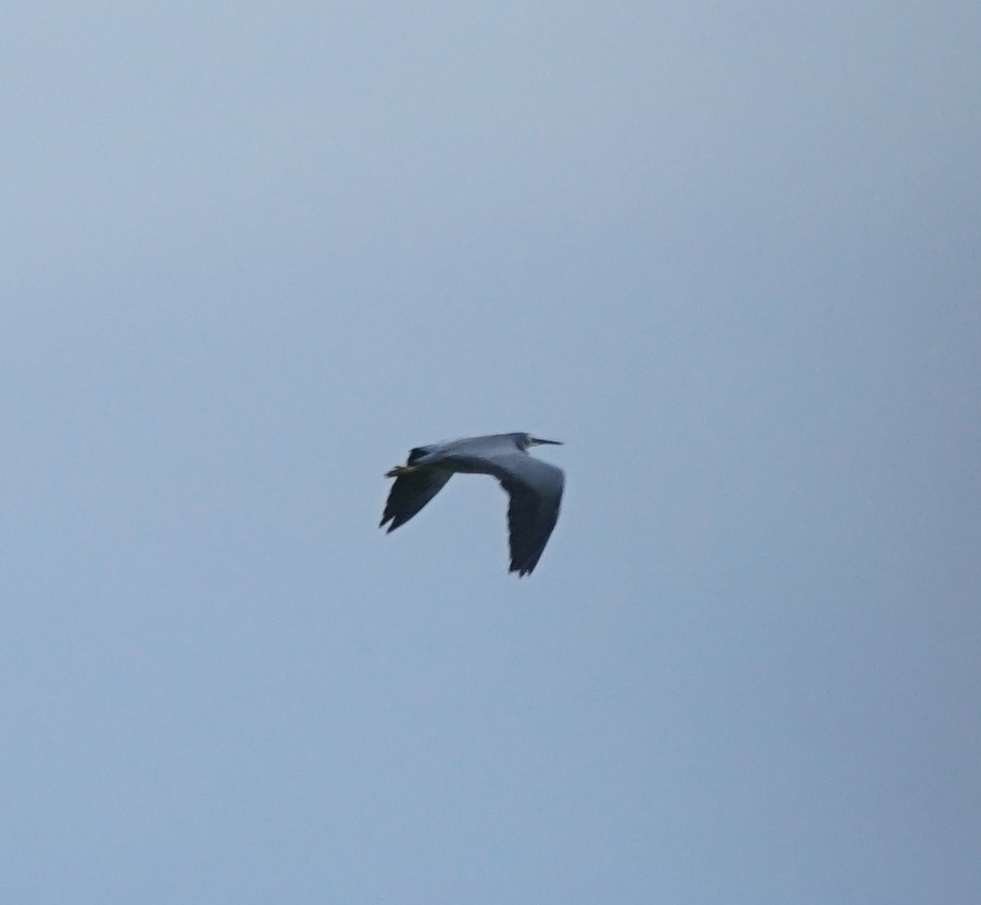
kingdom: Animalia
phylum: Chordata
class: Aves
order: Pelecaniformes
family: Ardeidae
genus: Egretta
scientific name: Egretta novaehollandiae
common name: White-faced heron
